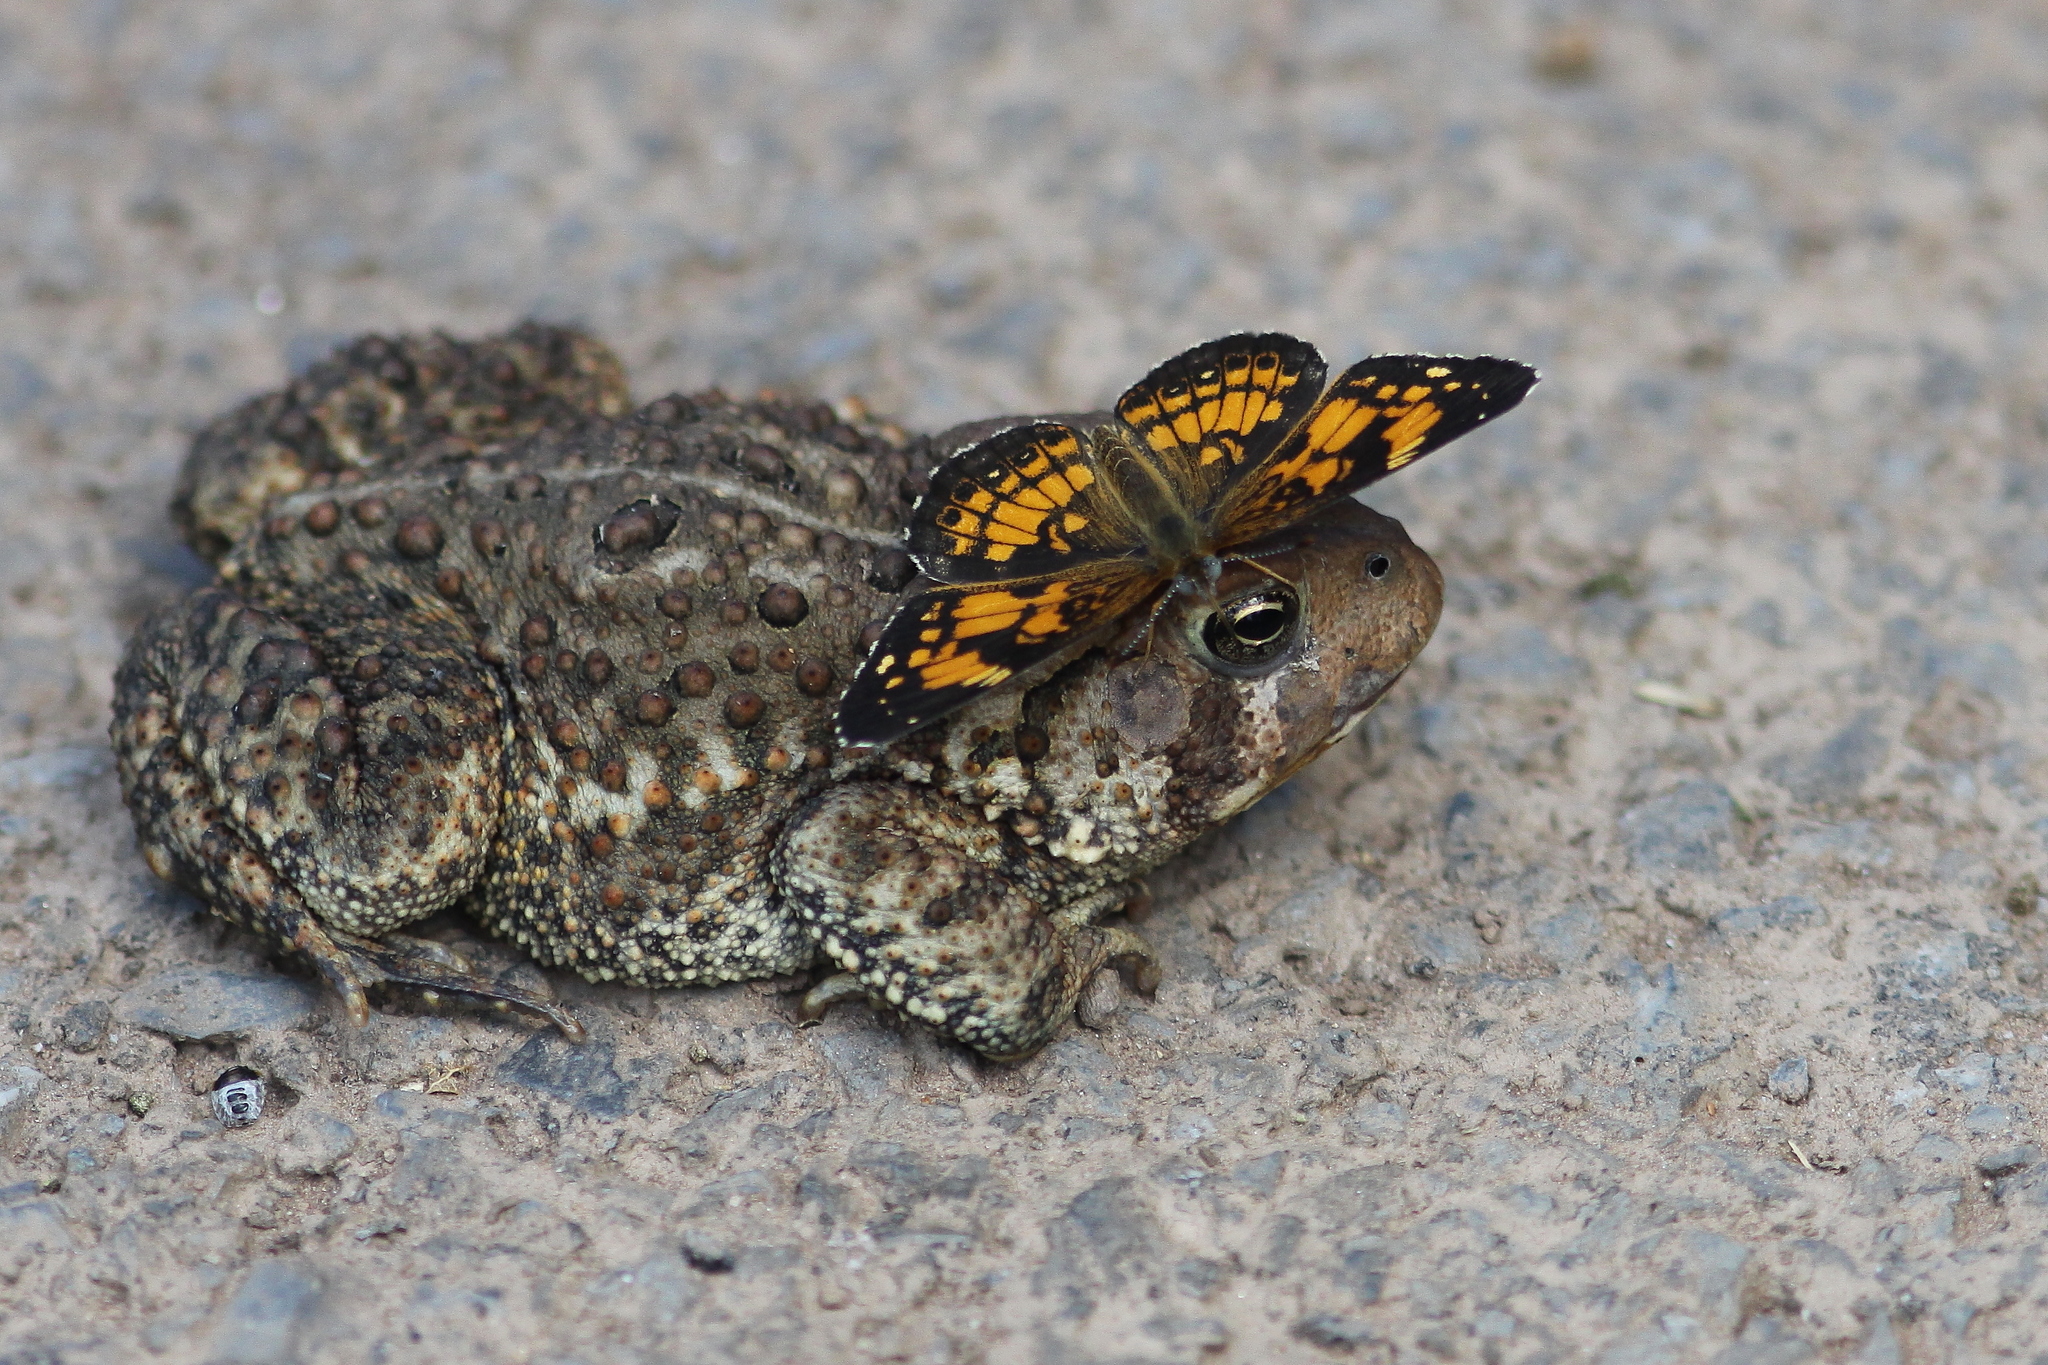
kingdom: Animalia
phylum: Arthropoda
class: Insecta
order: Lepidoptera
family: Nymphalidae
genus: Chlosyne
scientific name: Chlosyne nycteis
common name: Silvery checkerspot
